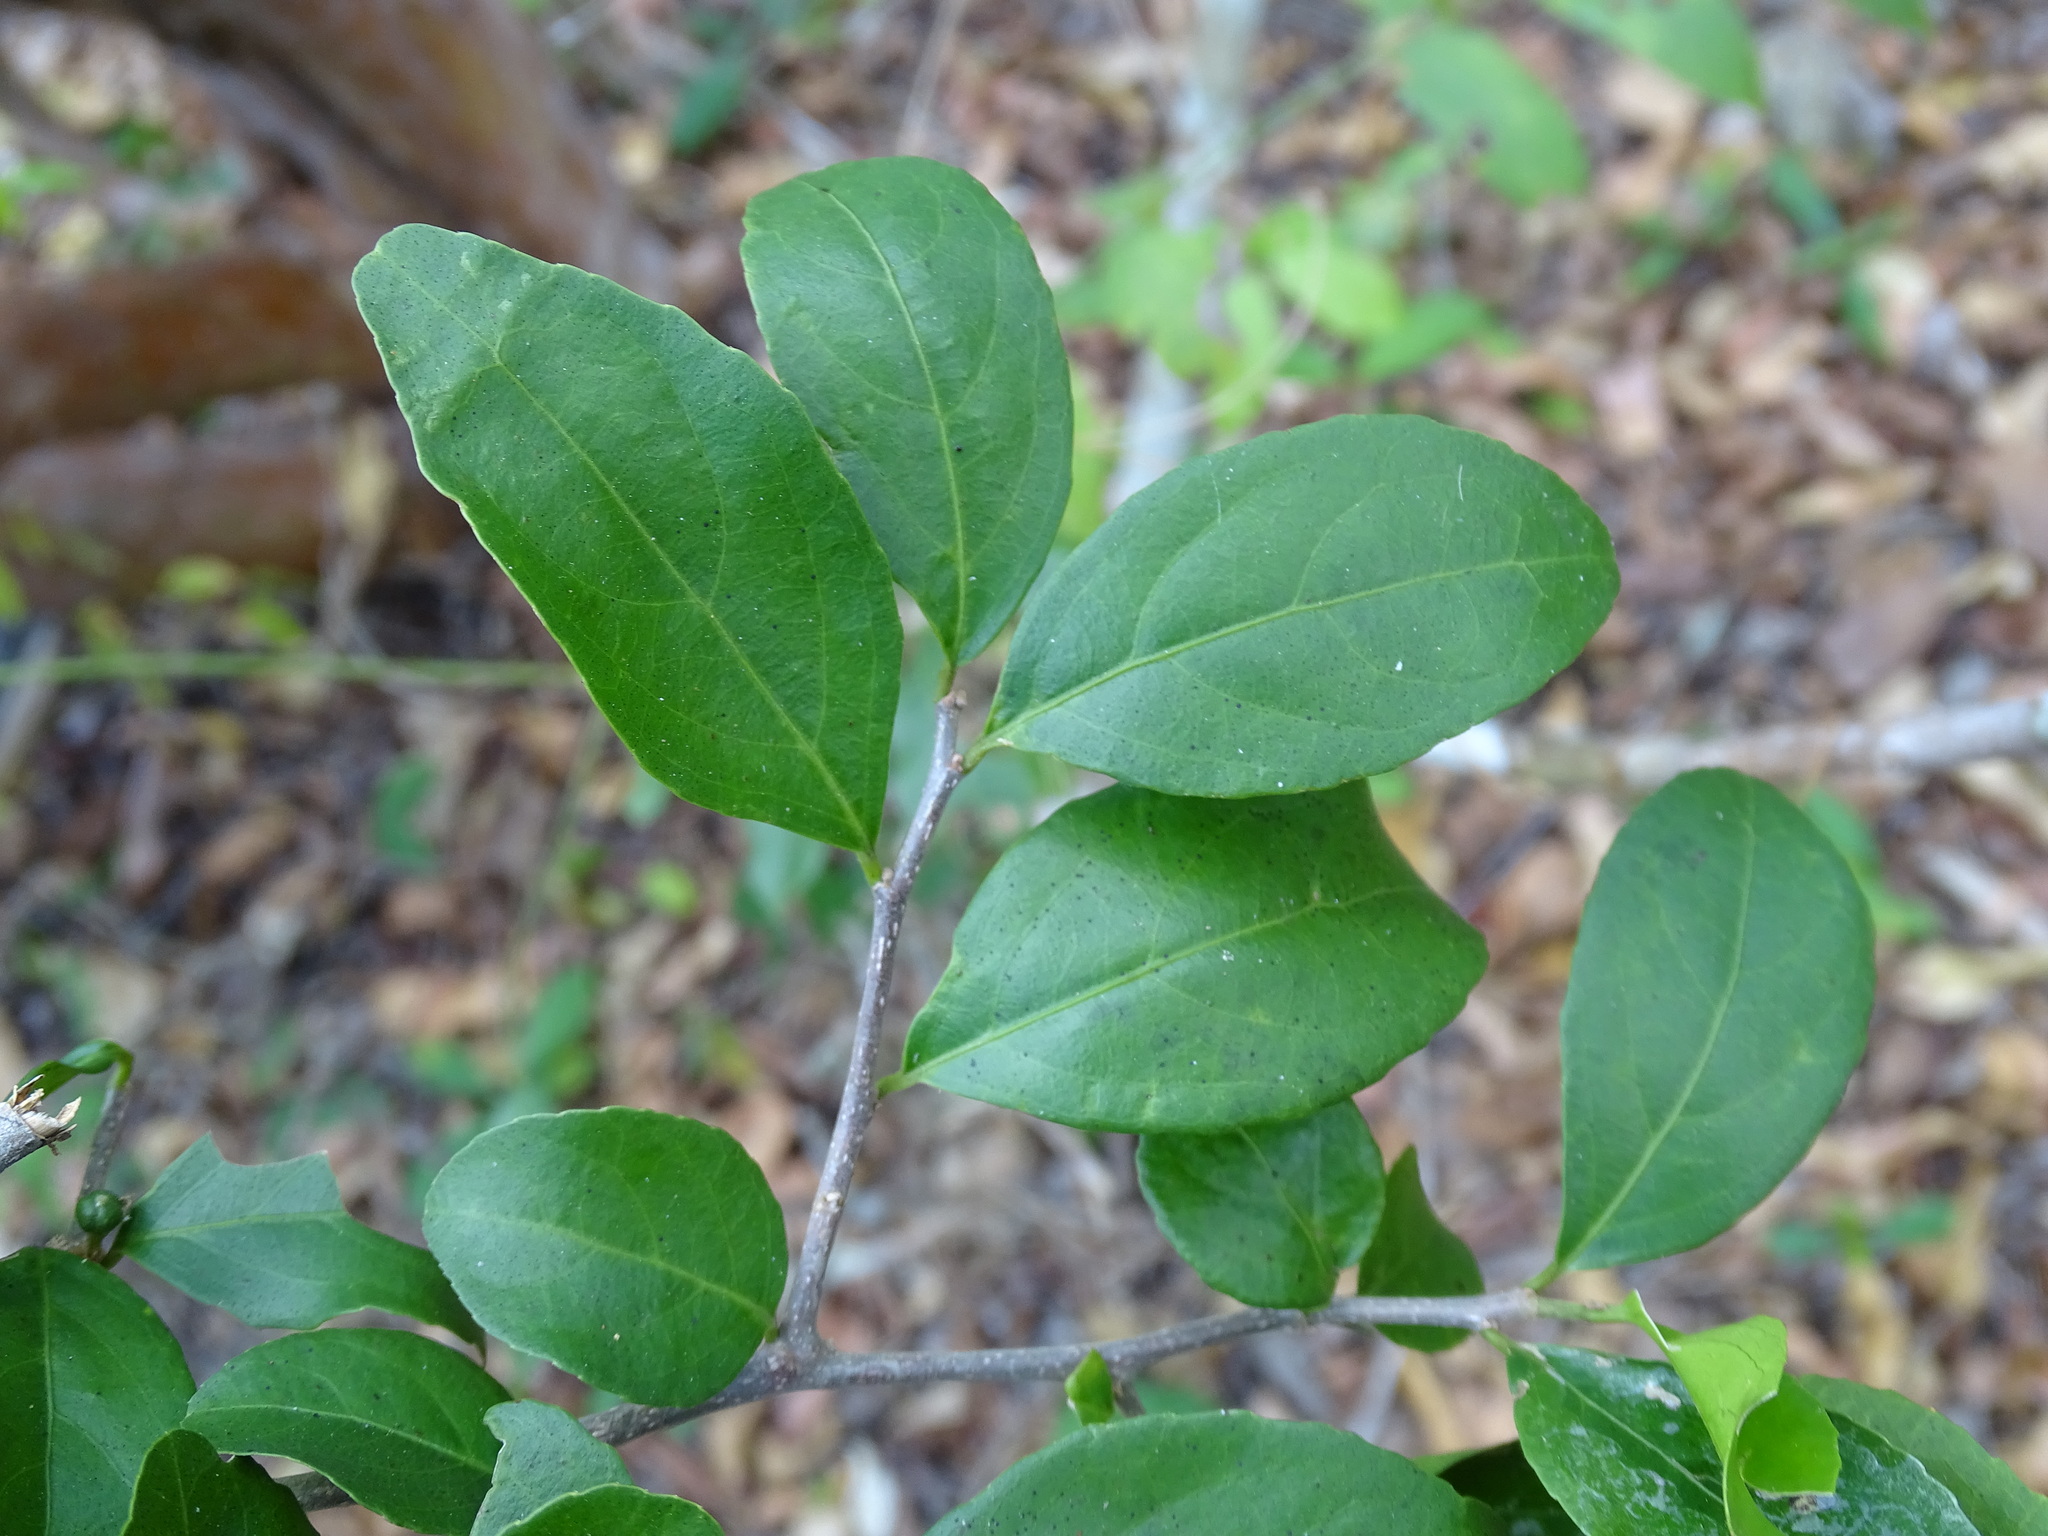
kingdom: Plantae
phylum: Tracheophyta
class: Magnoliopsida
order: Malpighiales
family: Salicaceae
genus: Casearia
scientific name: Casearia aculeata
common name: Cockspur
